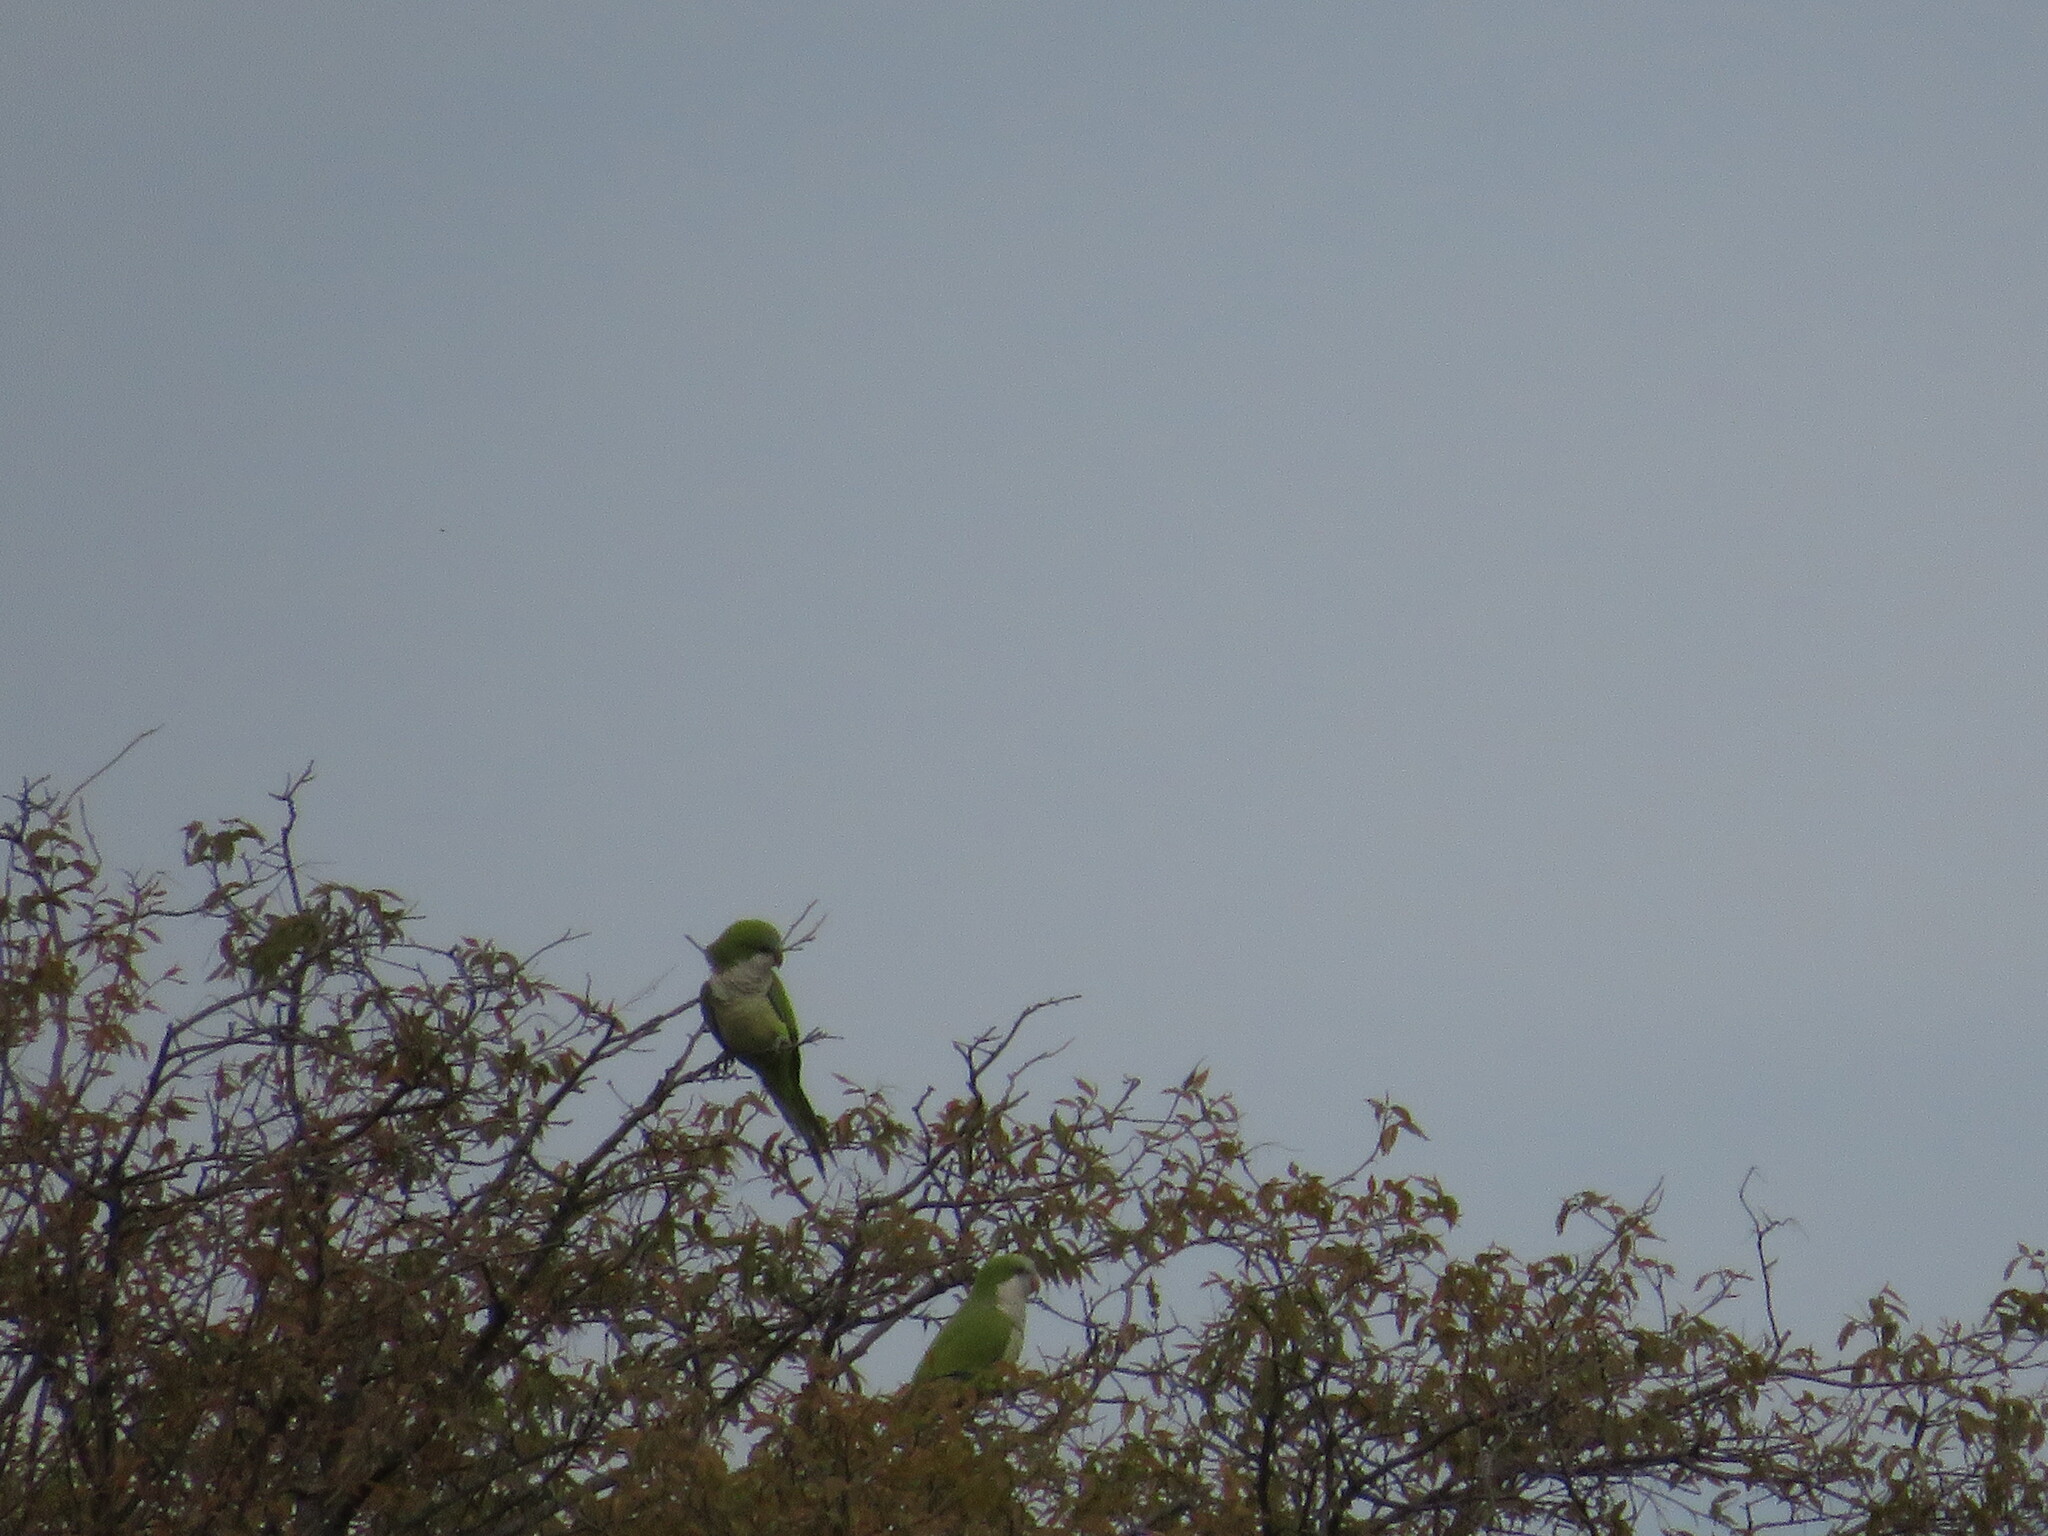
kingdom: Animalia
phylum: Chordata
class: Aves
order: Psittaciformes
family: Psittacidae
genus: Myiopsitta
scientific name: Myiopsitta monachus
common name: Monk parakeet
